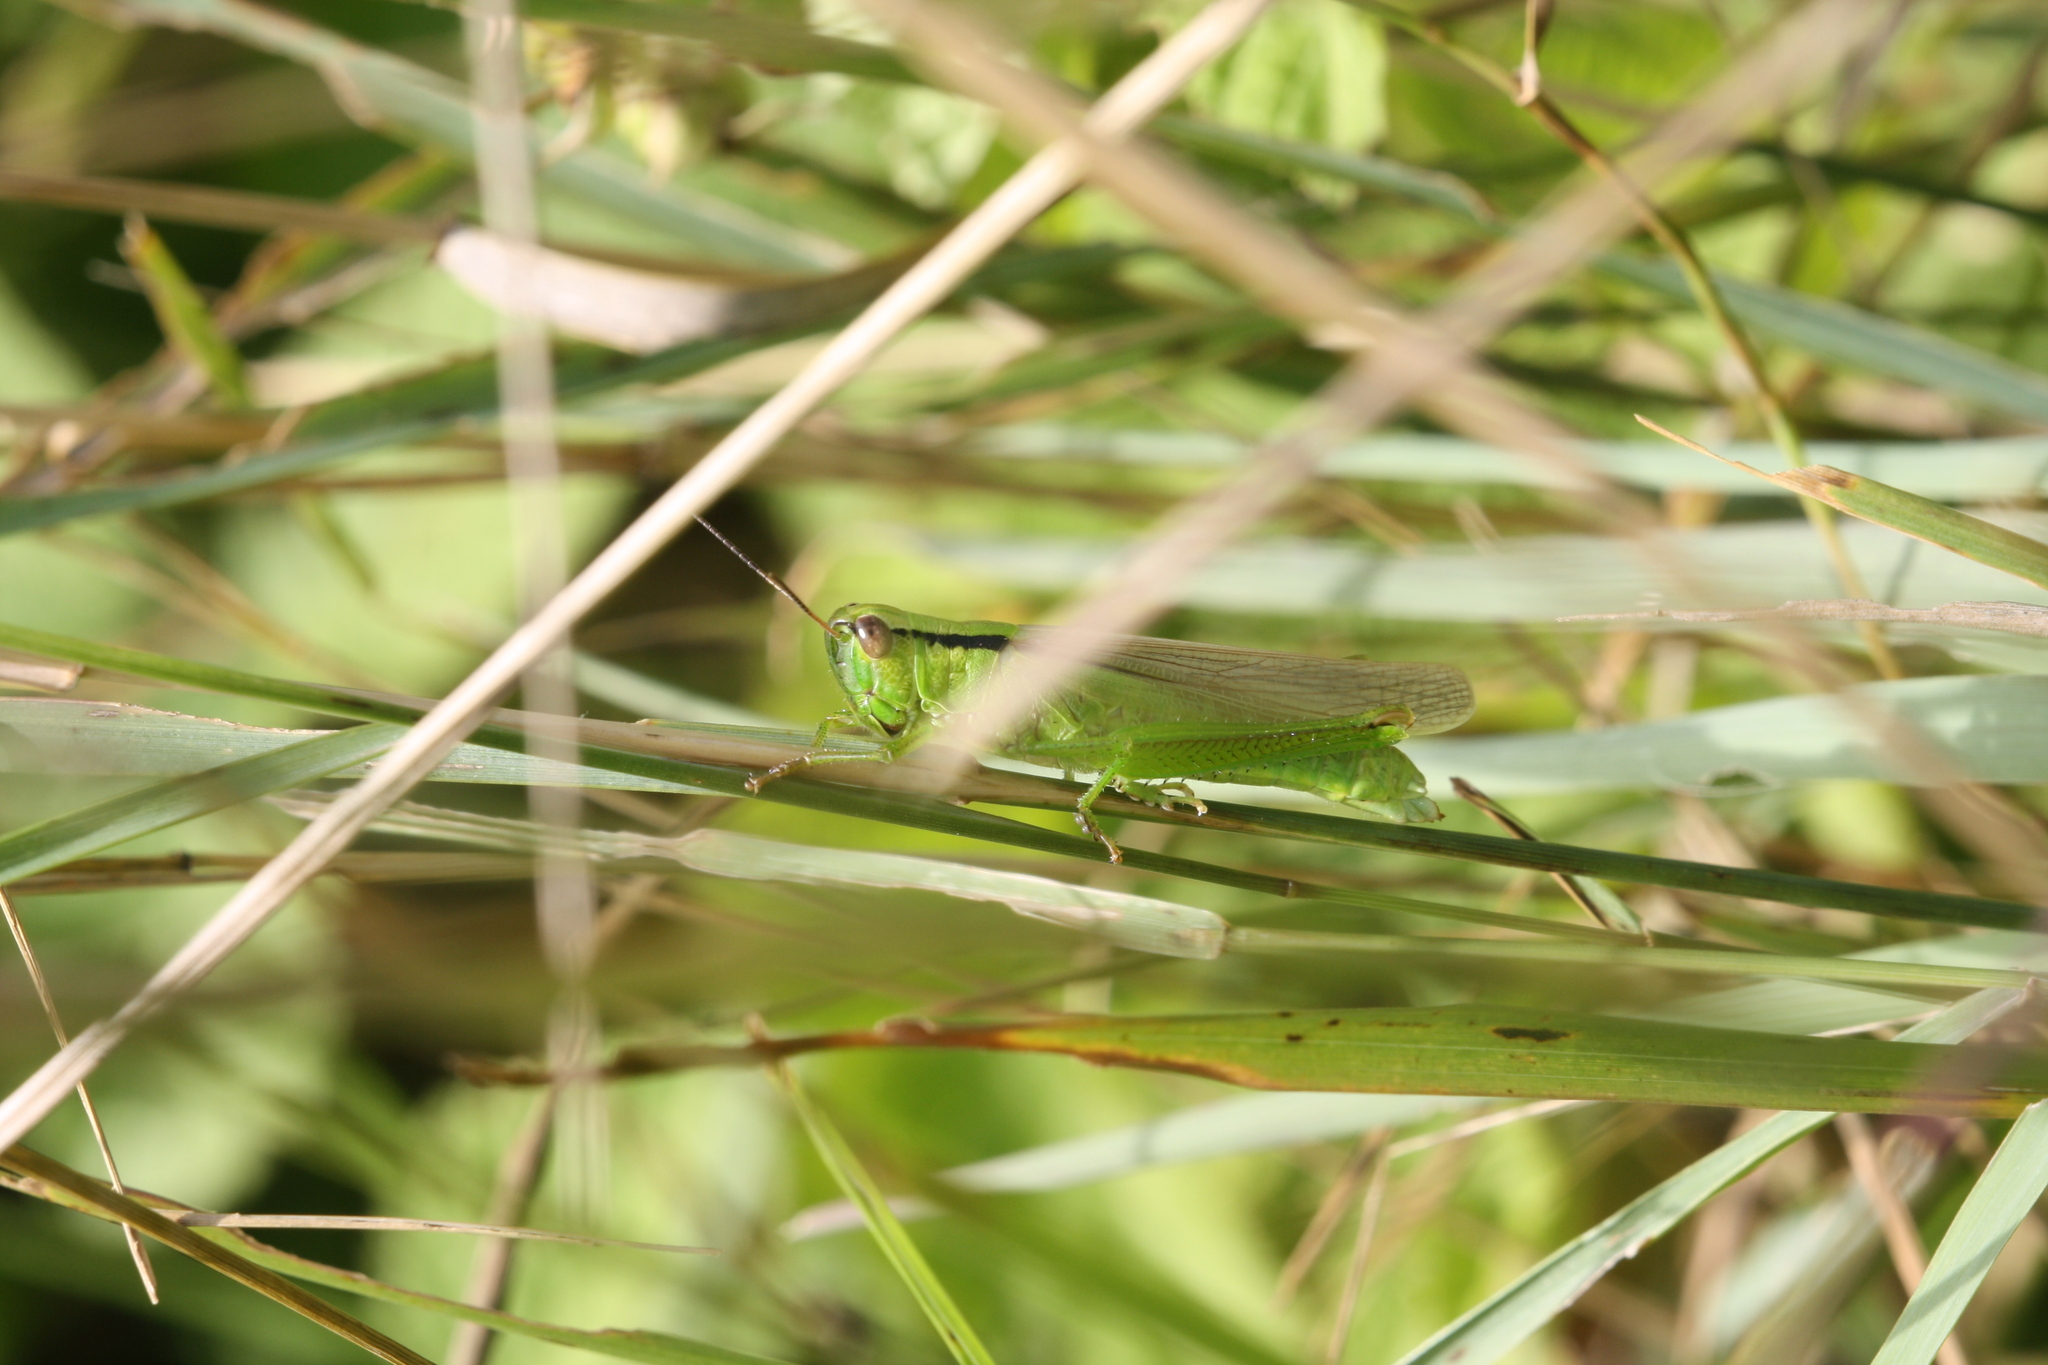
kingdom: Animalia
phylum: Arthropoda
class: Insecta
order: Orthoptera
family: Acrididae
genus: Mecostethus
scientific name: Mecostethus parapleurus
